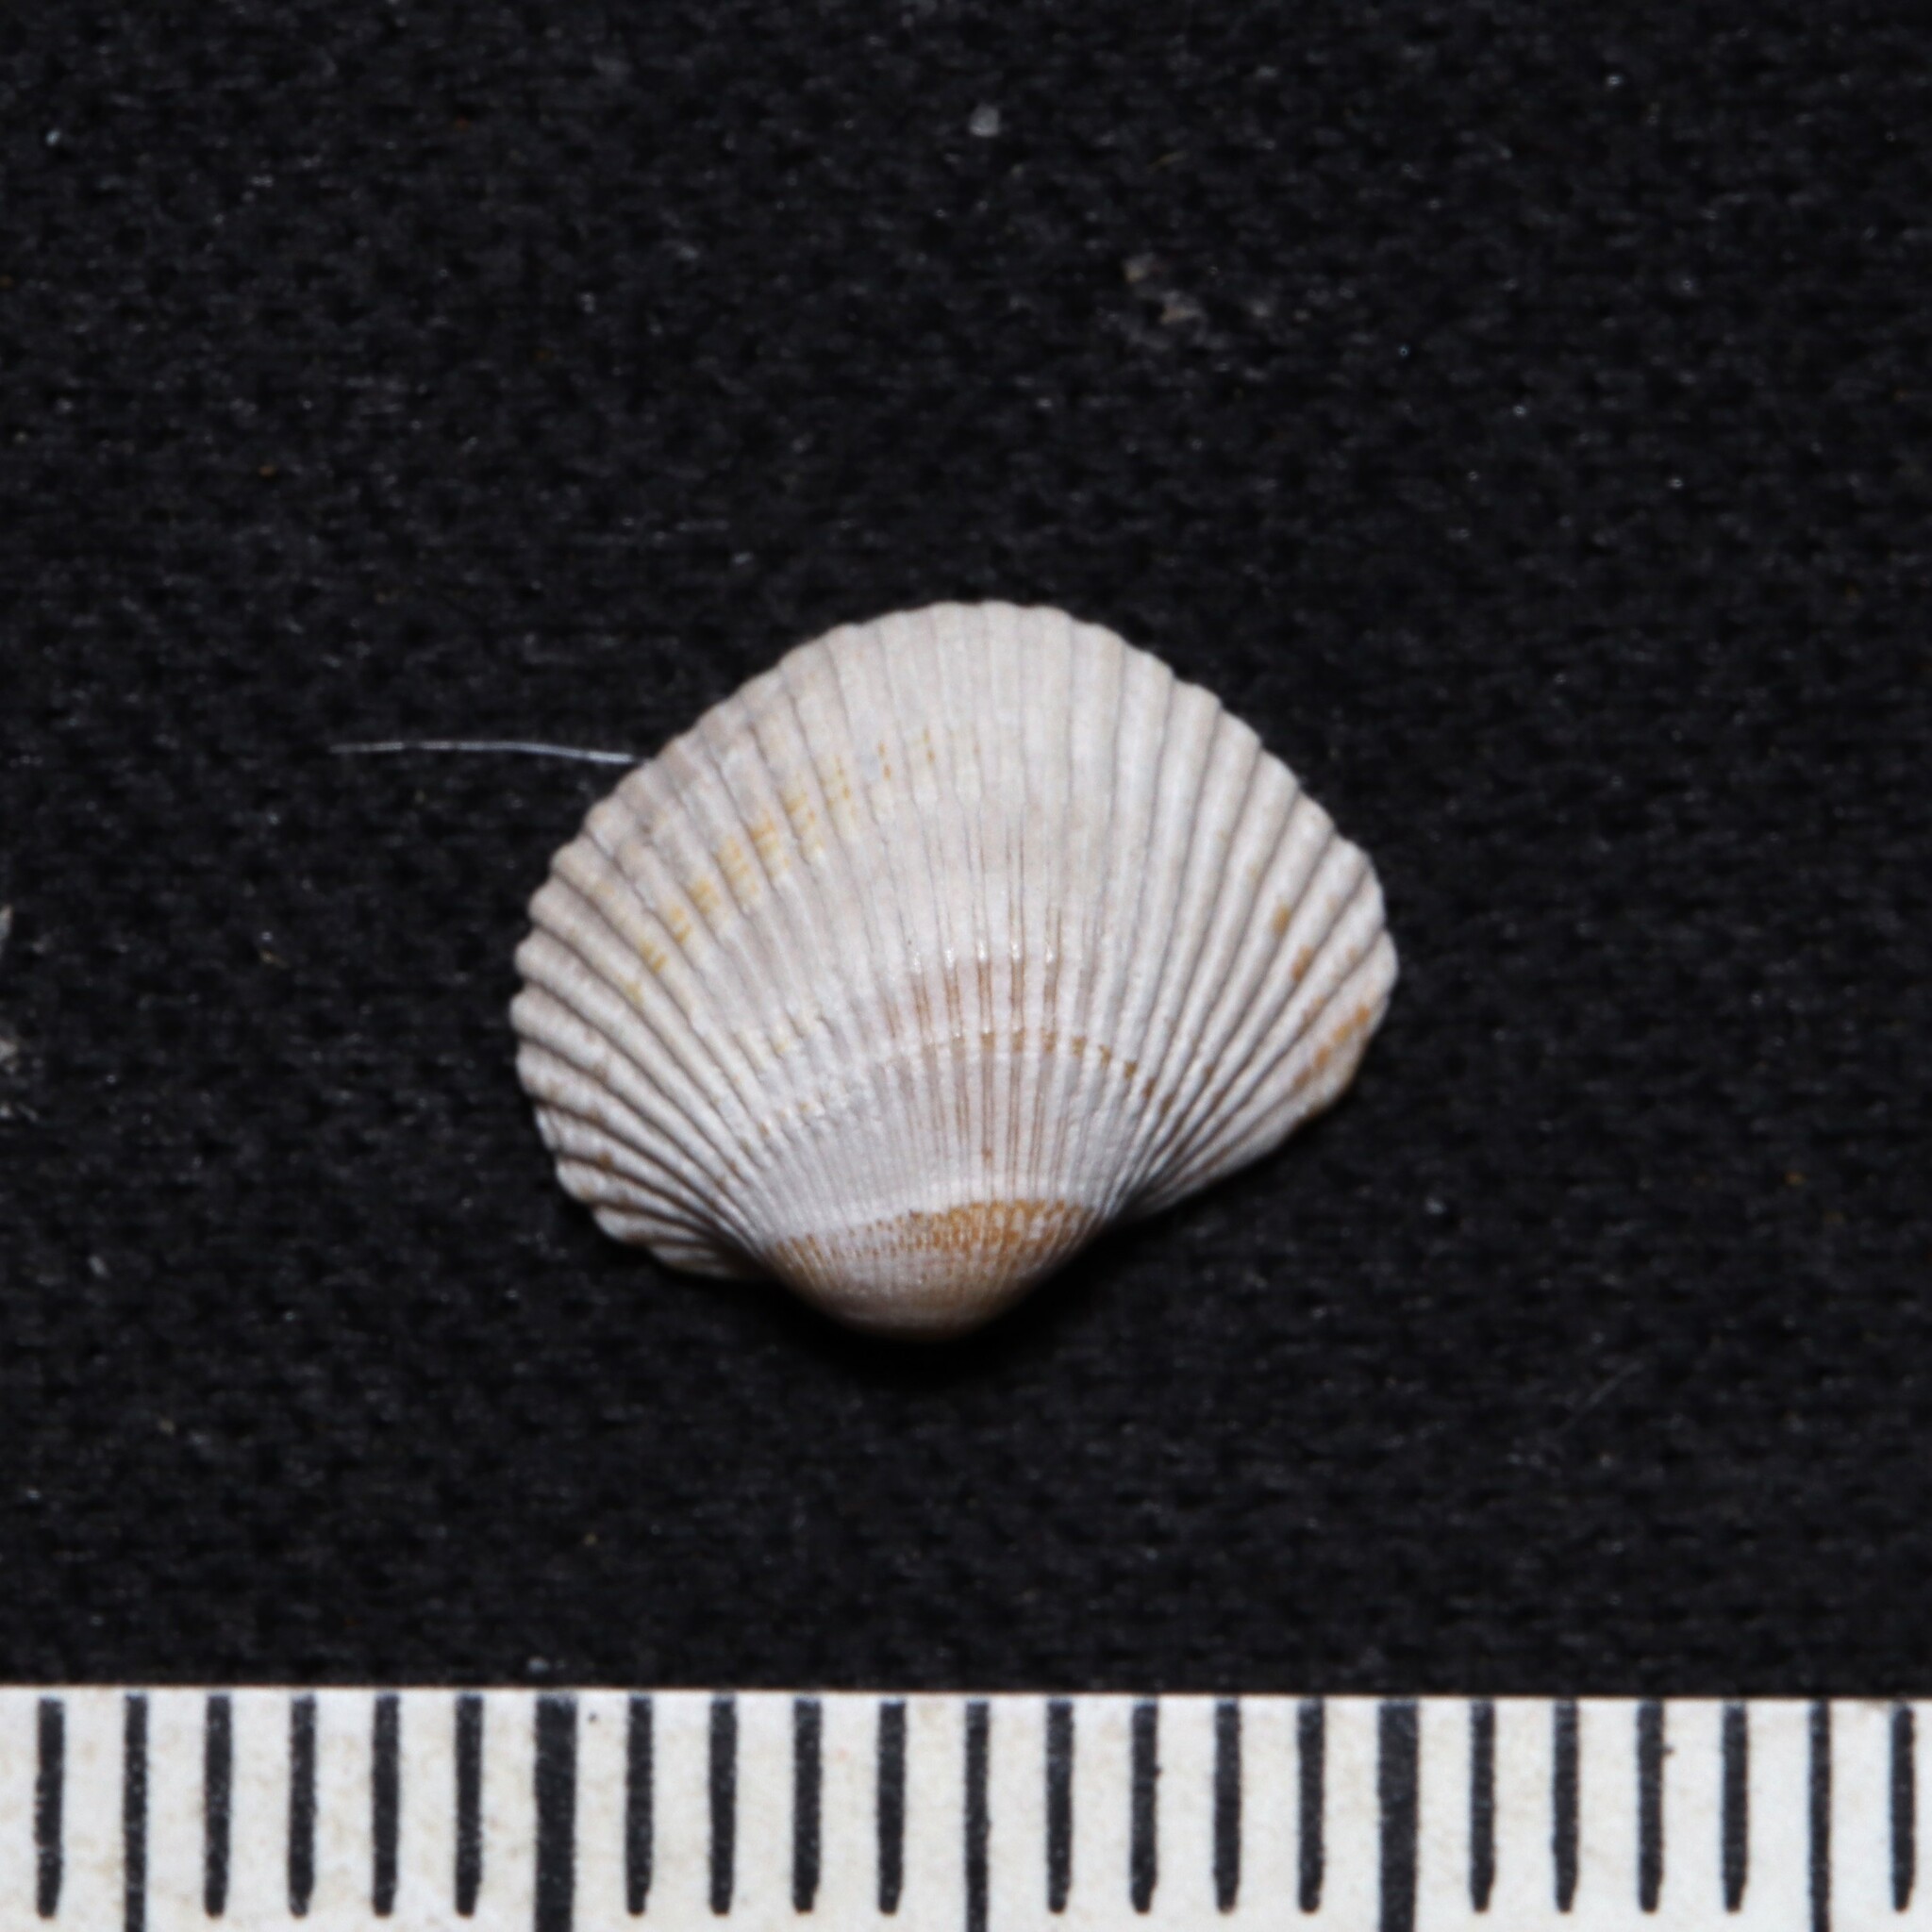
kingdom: Animalia
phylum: Mollusca
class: Bivalvia
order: Arcida
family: Arcidae
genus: Lunarca
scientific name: Lunarca ovalis
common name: Blood ark
